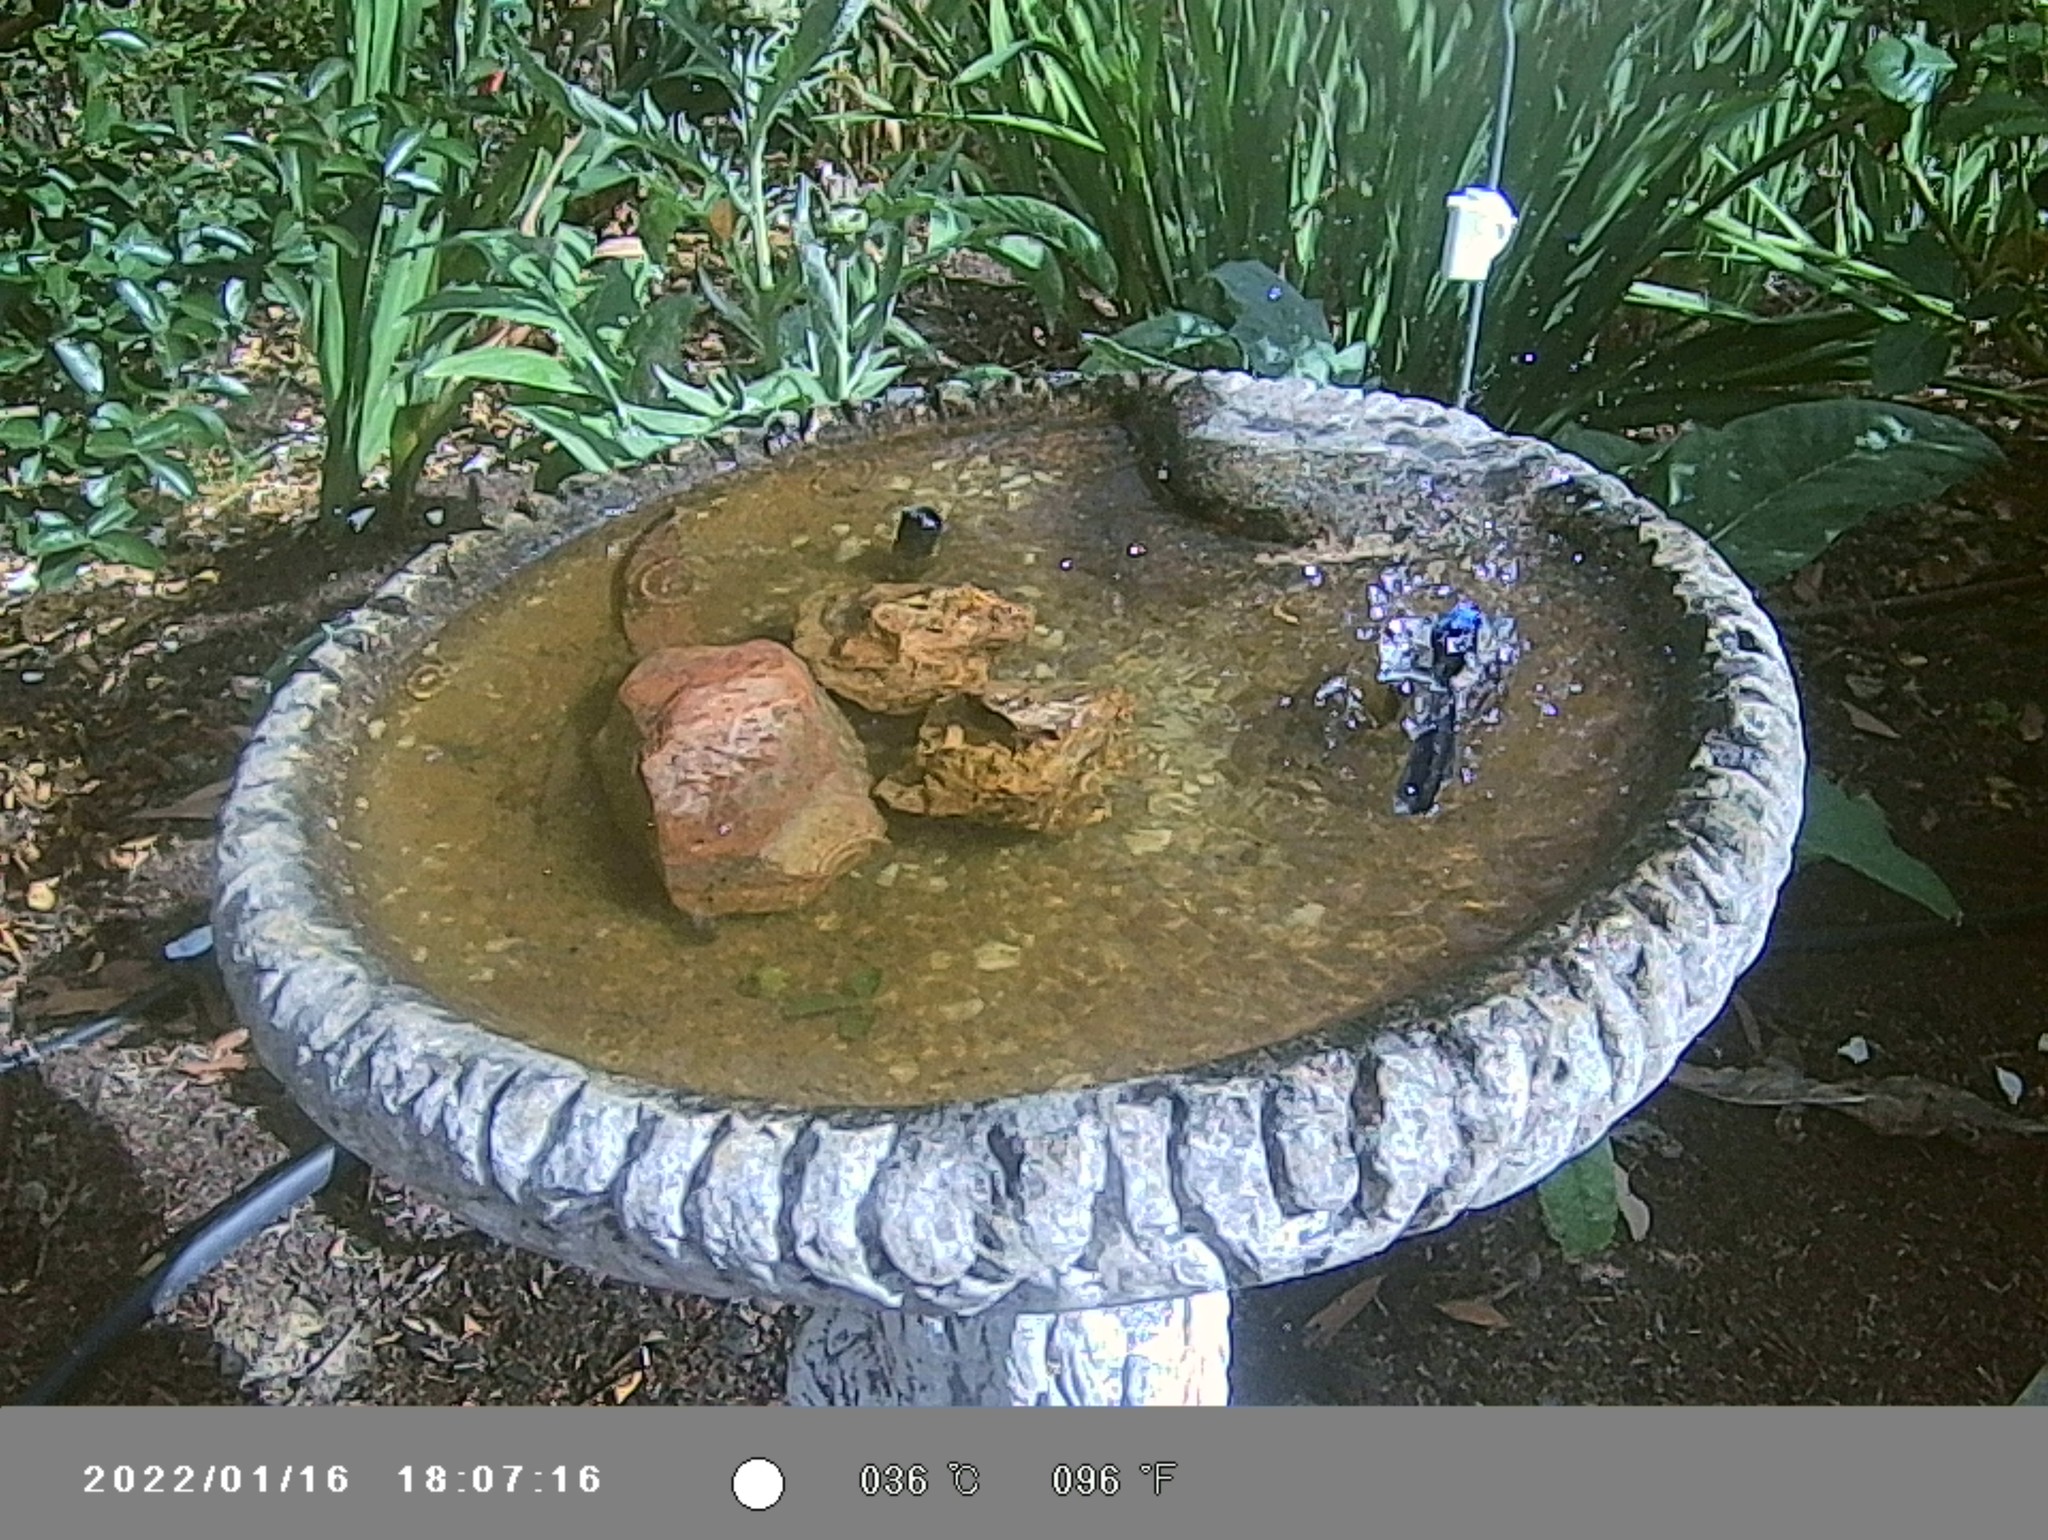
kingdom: Animalia
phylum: Chordata
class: Aves
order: Passeriformes
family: Maluridae
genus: Malurus
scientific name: Malurus cyaneus
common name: Superb fairywren
